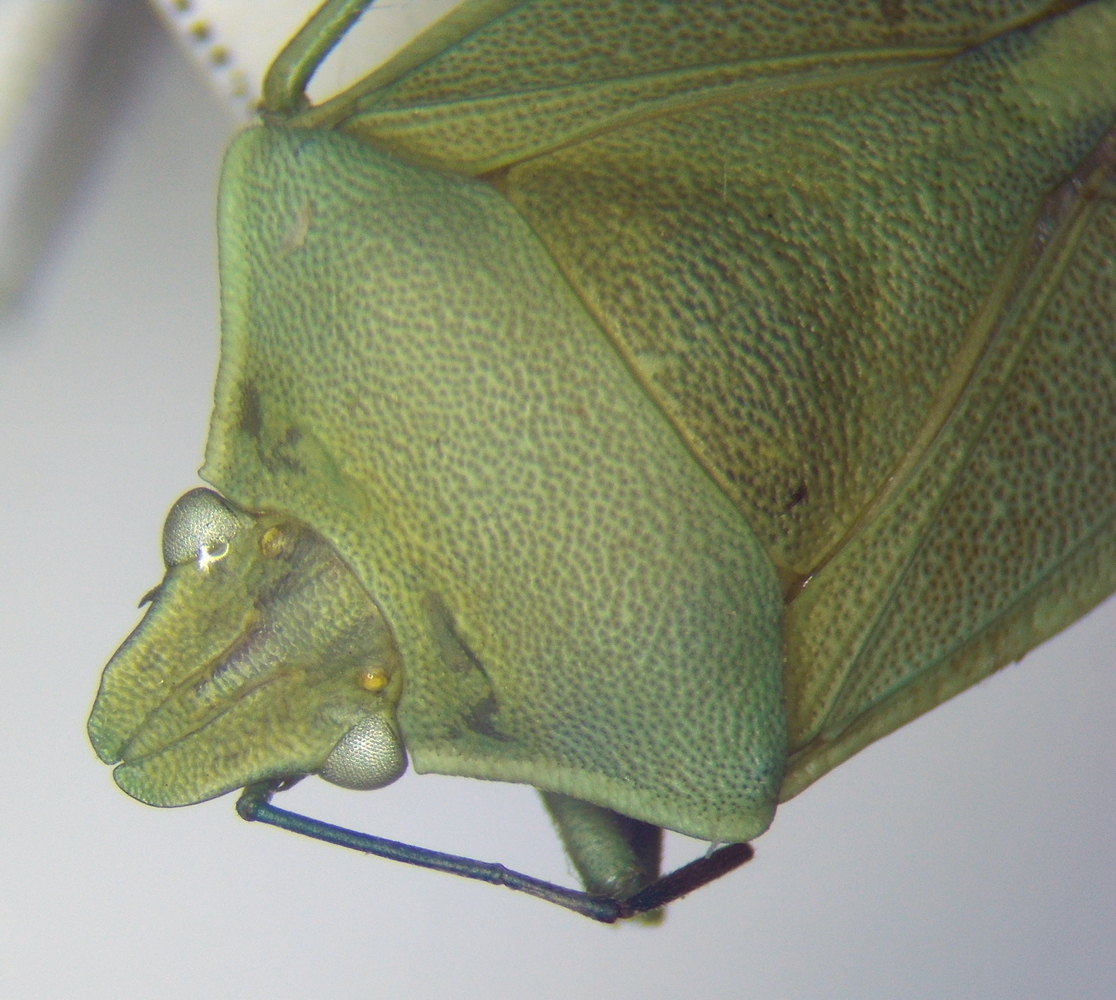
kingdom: Animalia
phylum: Arthropoda
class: Insecta
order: Hemiptera
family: Pentatomidae
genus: Brachynema
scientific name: Brachynema germarii
